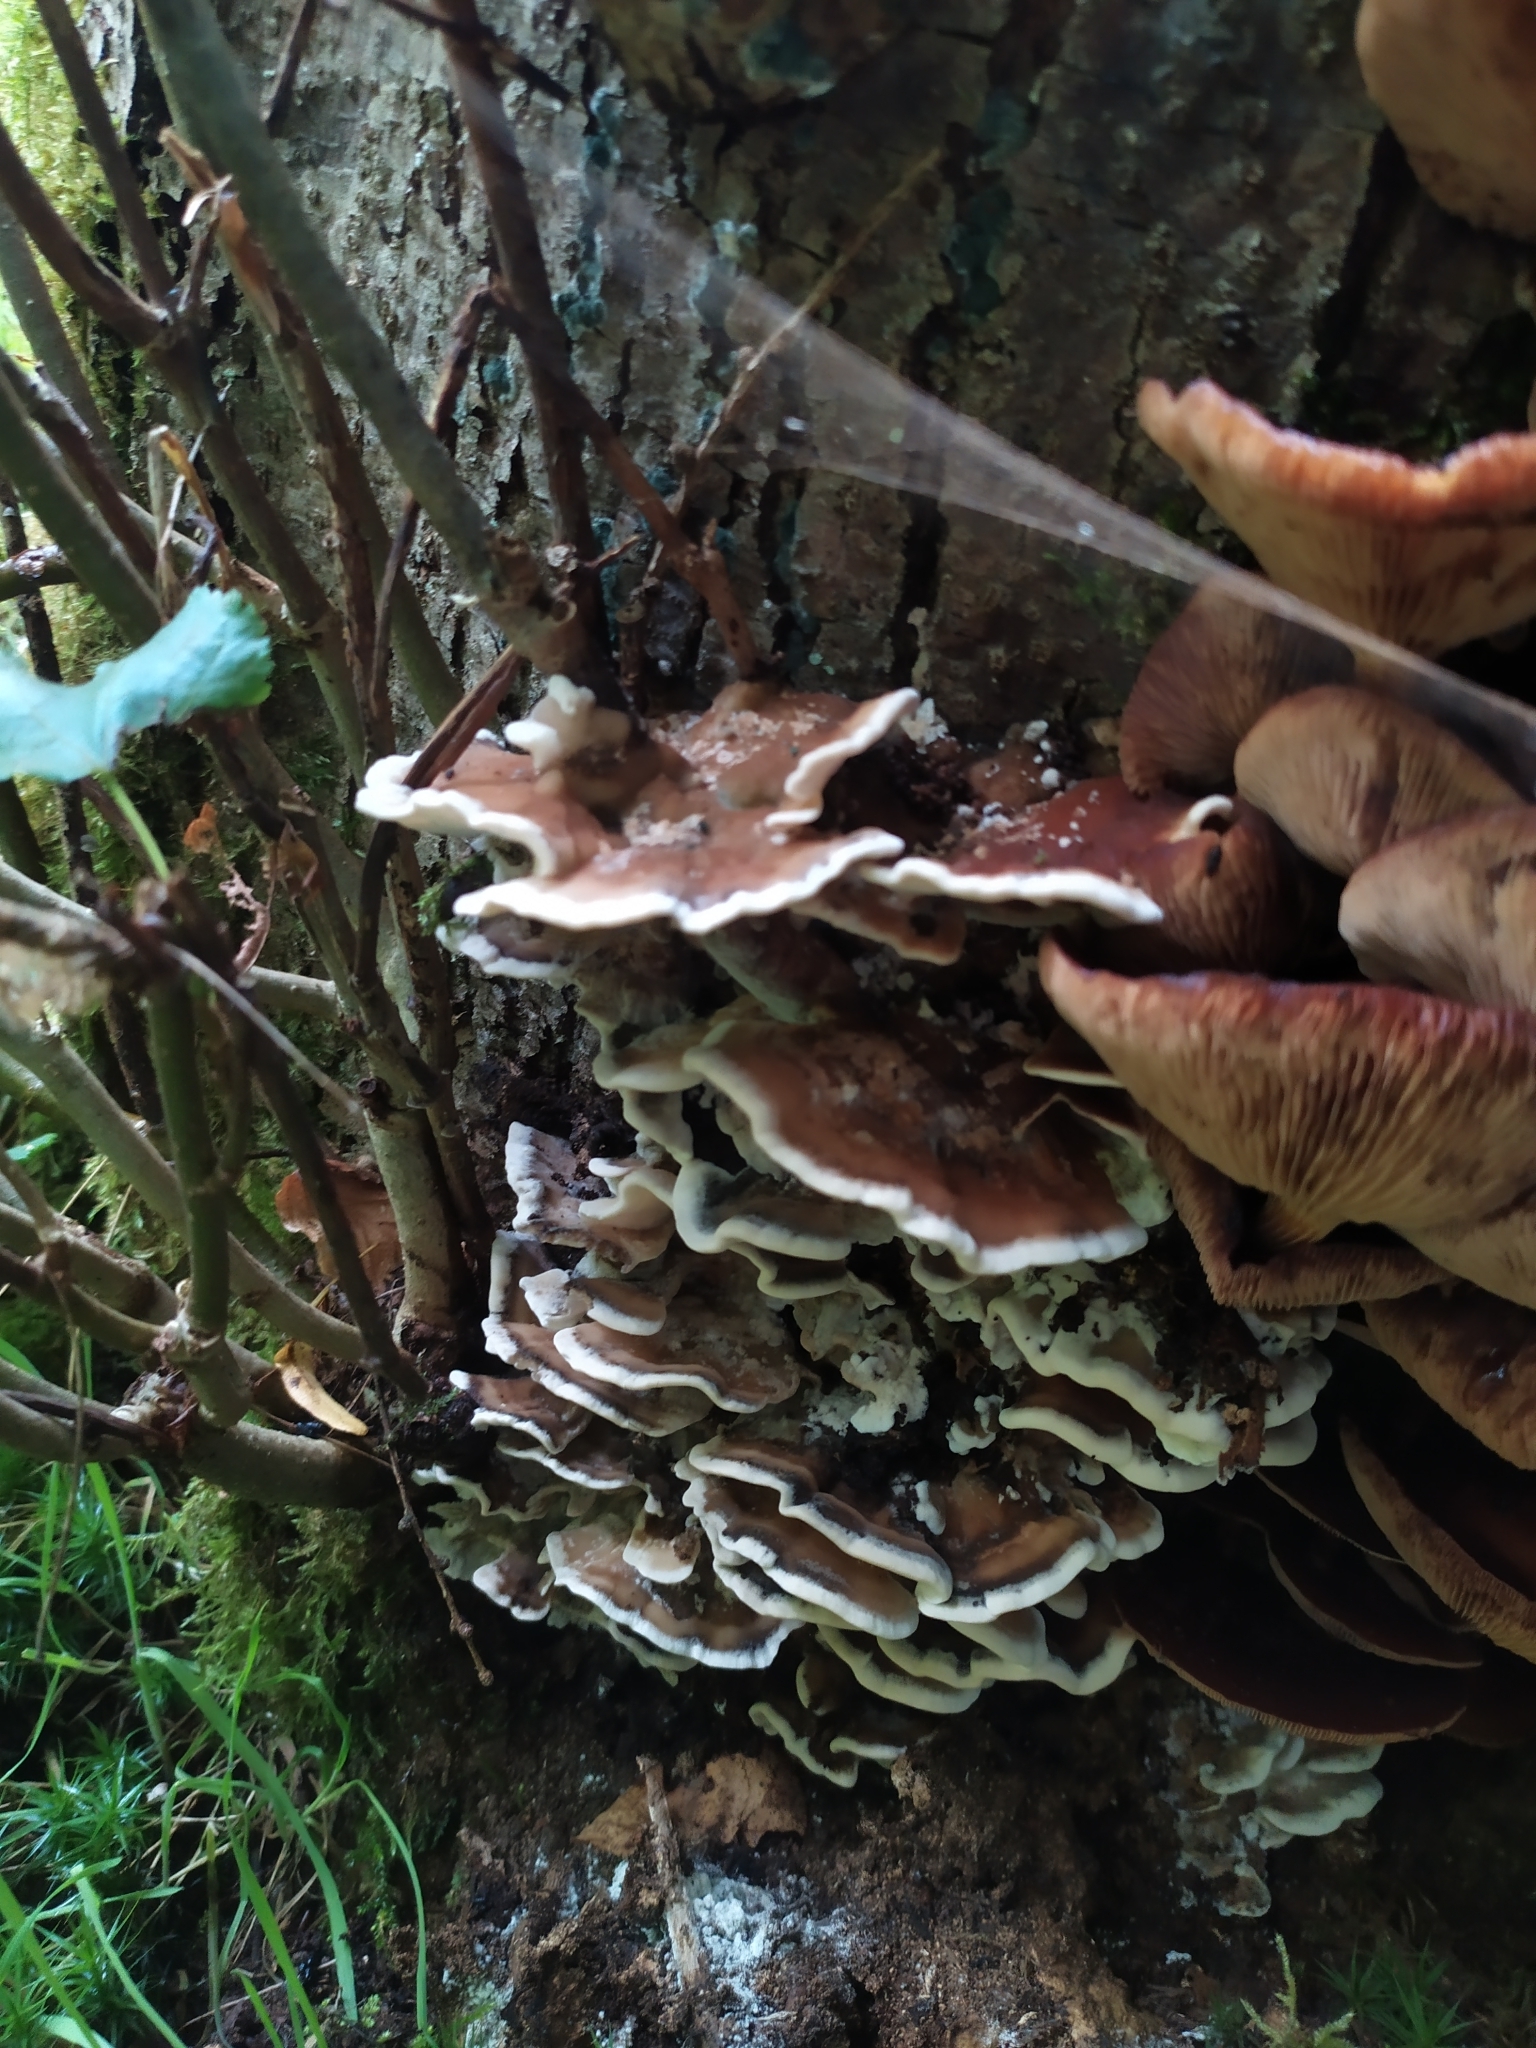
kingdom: Fungi
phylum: Basidiomycota
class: Agaricomycetes
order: Polyporales
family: Phanerochaetaceae
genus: Bjerkandera
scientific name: Bjerkandera adusta
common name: Smoky bracket
